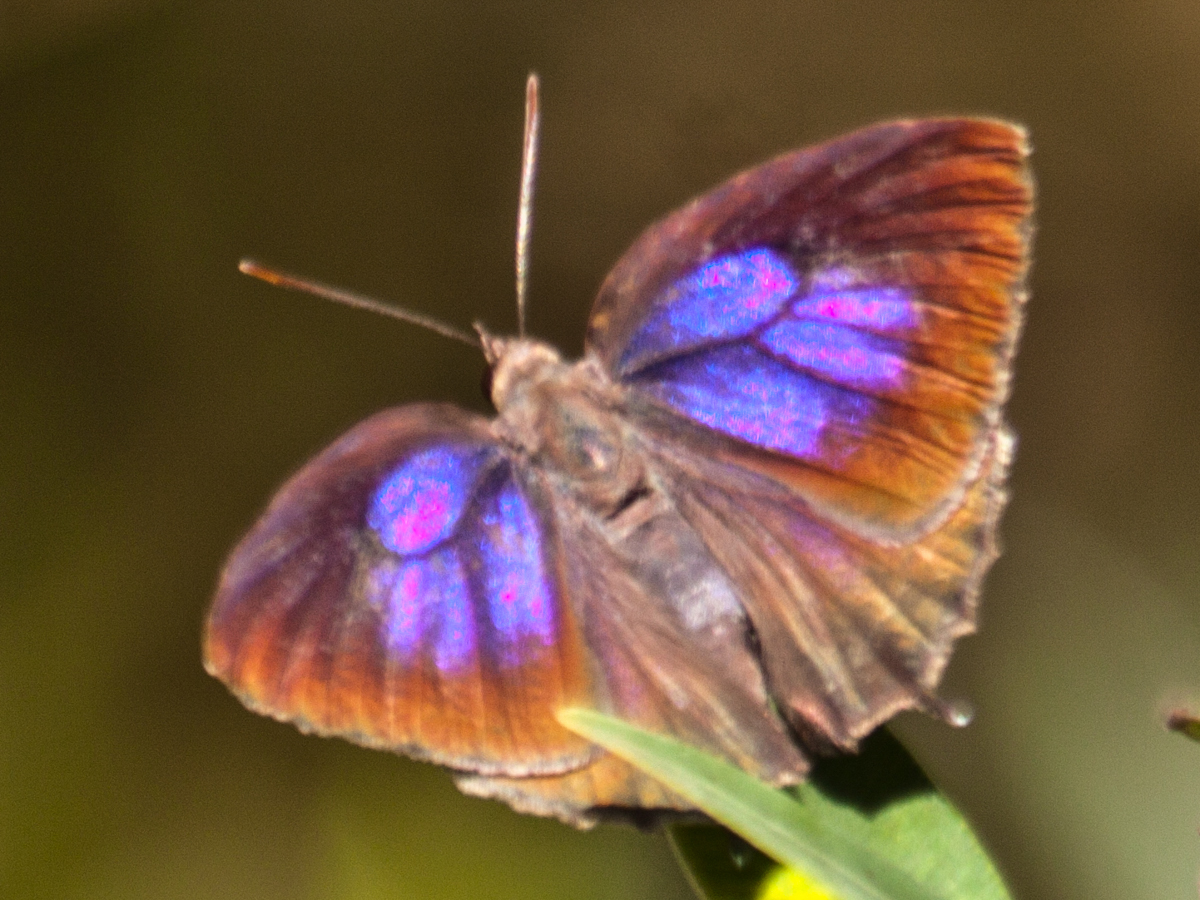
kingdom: Animalia
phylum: Arthropoda
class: Insecta
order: Lepidoptera
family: Lycaenidae
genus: Flos
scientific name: Flos
